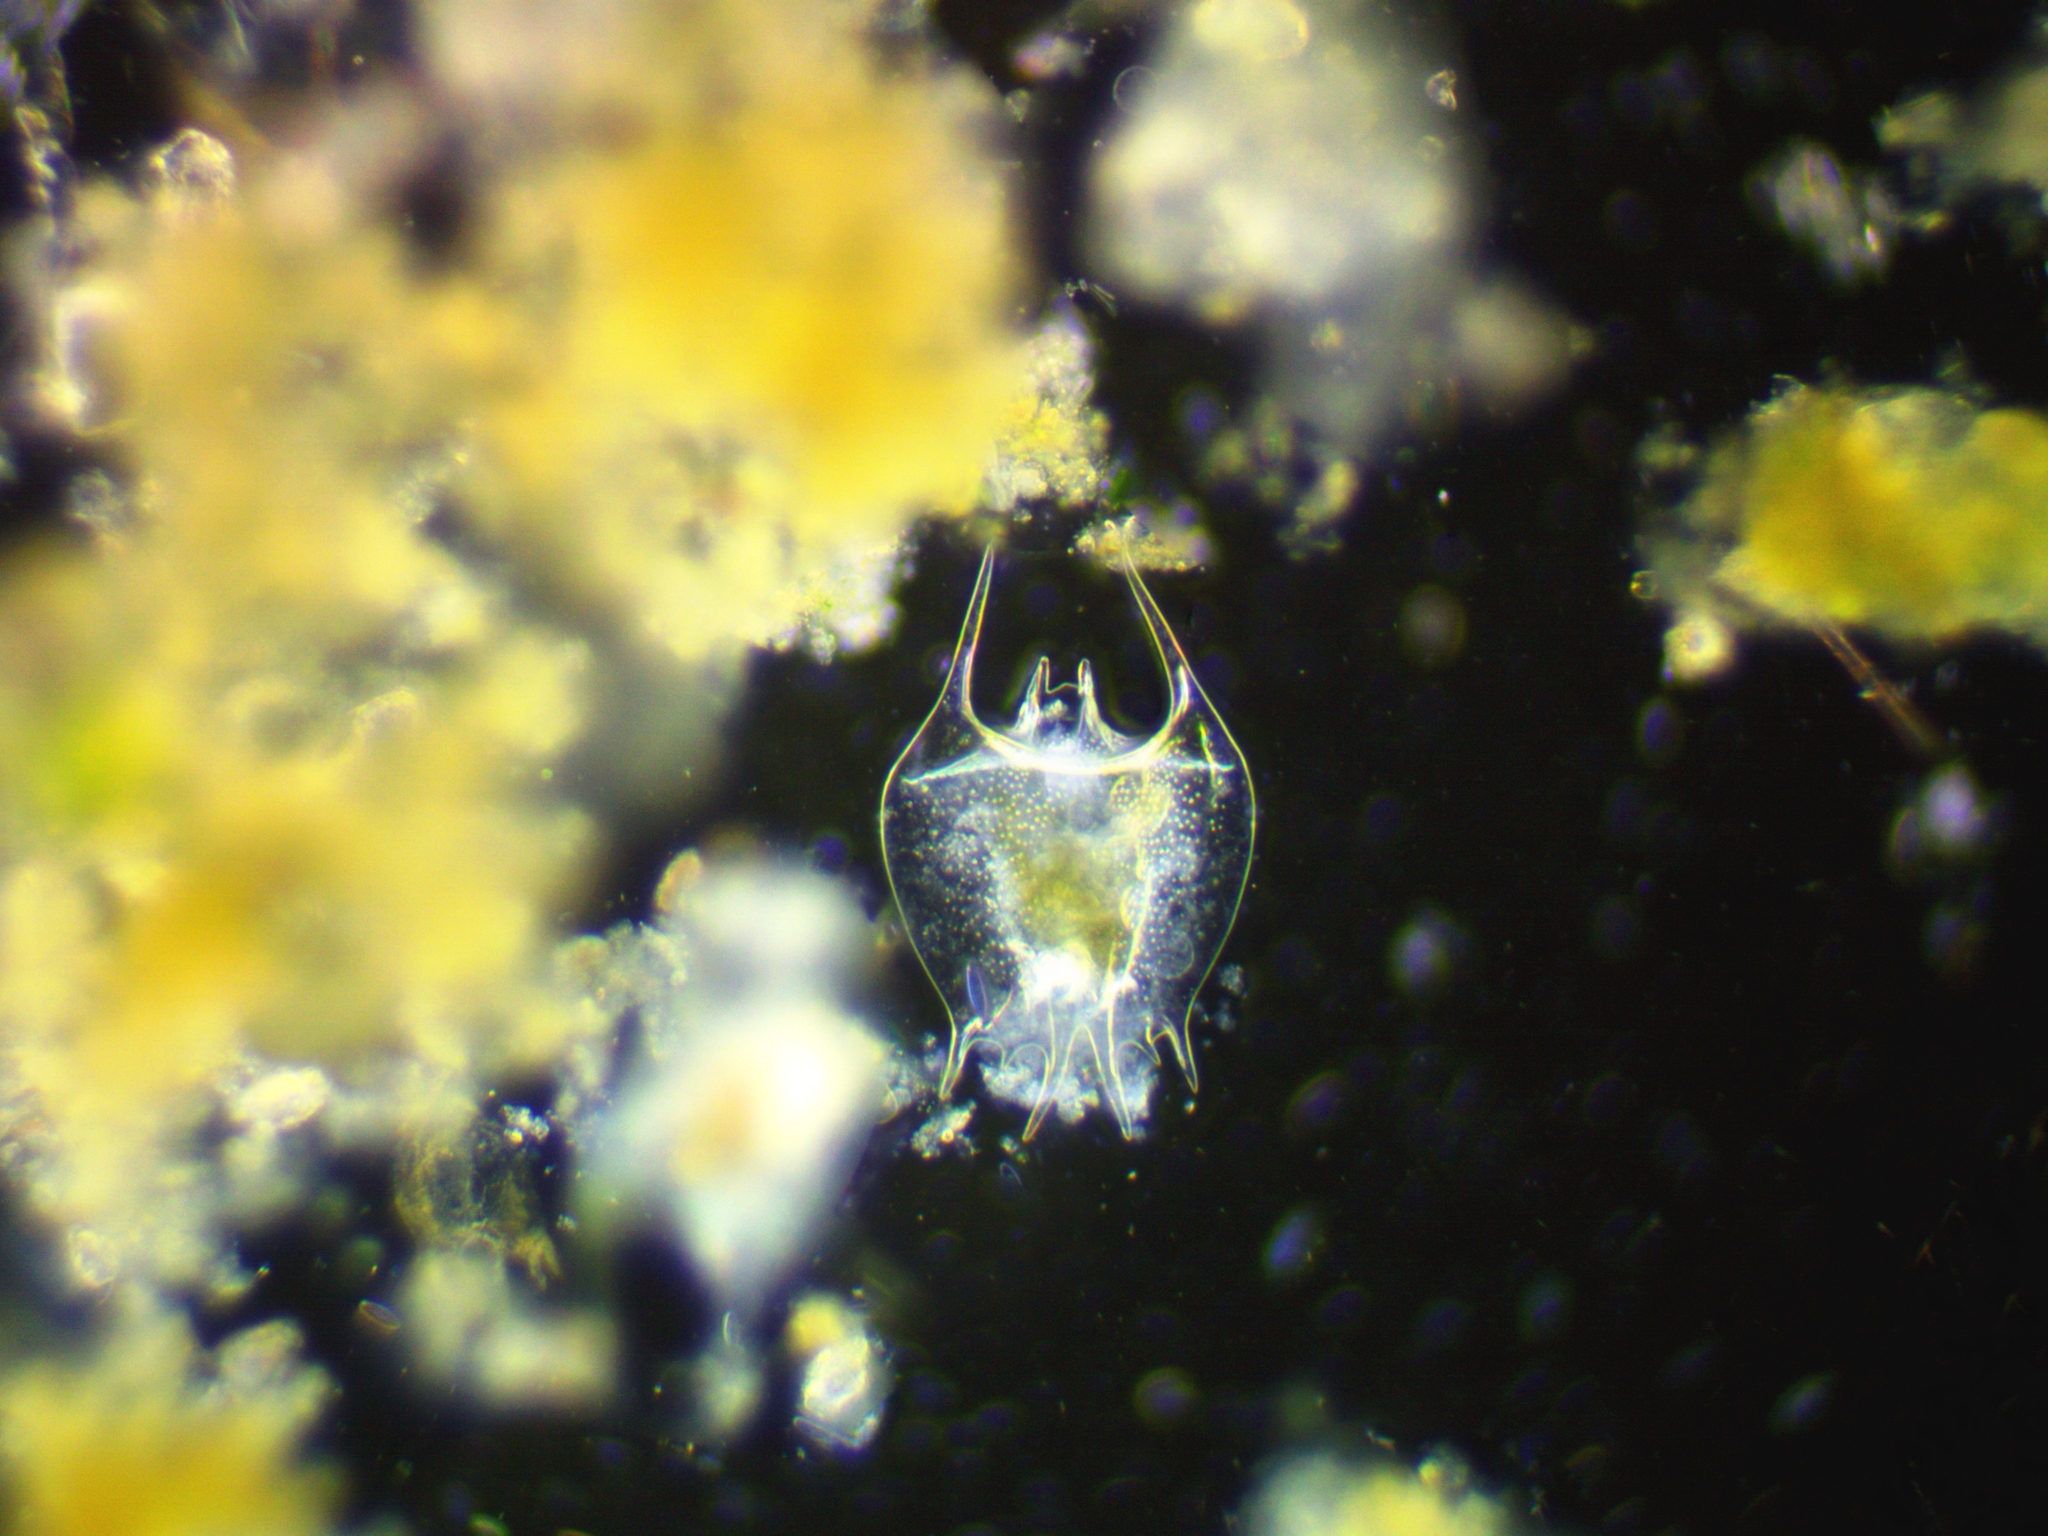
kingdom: Animalia
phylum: Rotifera
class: Eurotatoria
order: Ploima
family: Brachionidae
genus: Brachionus
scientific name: Brachionus quadridentatus
